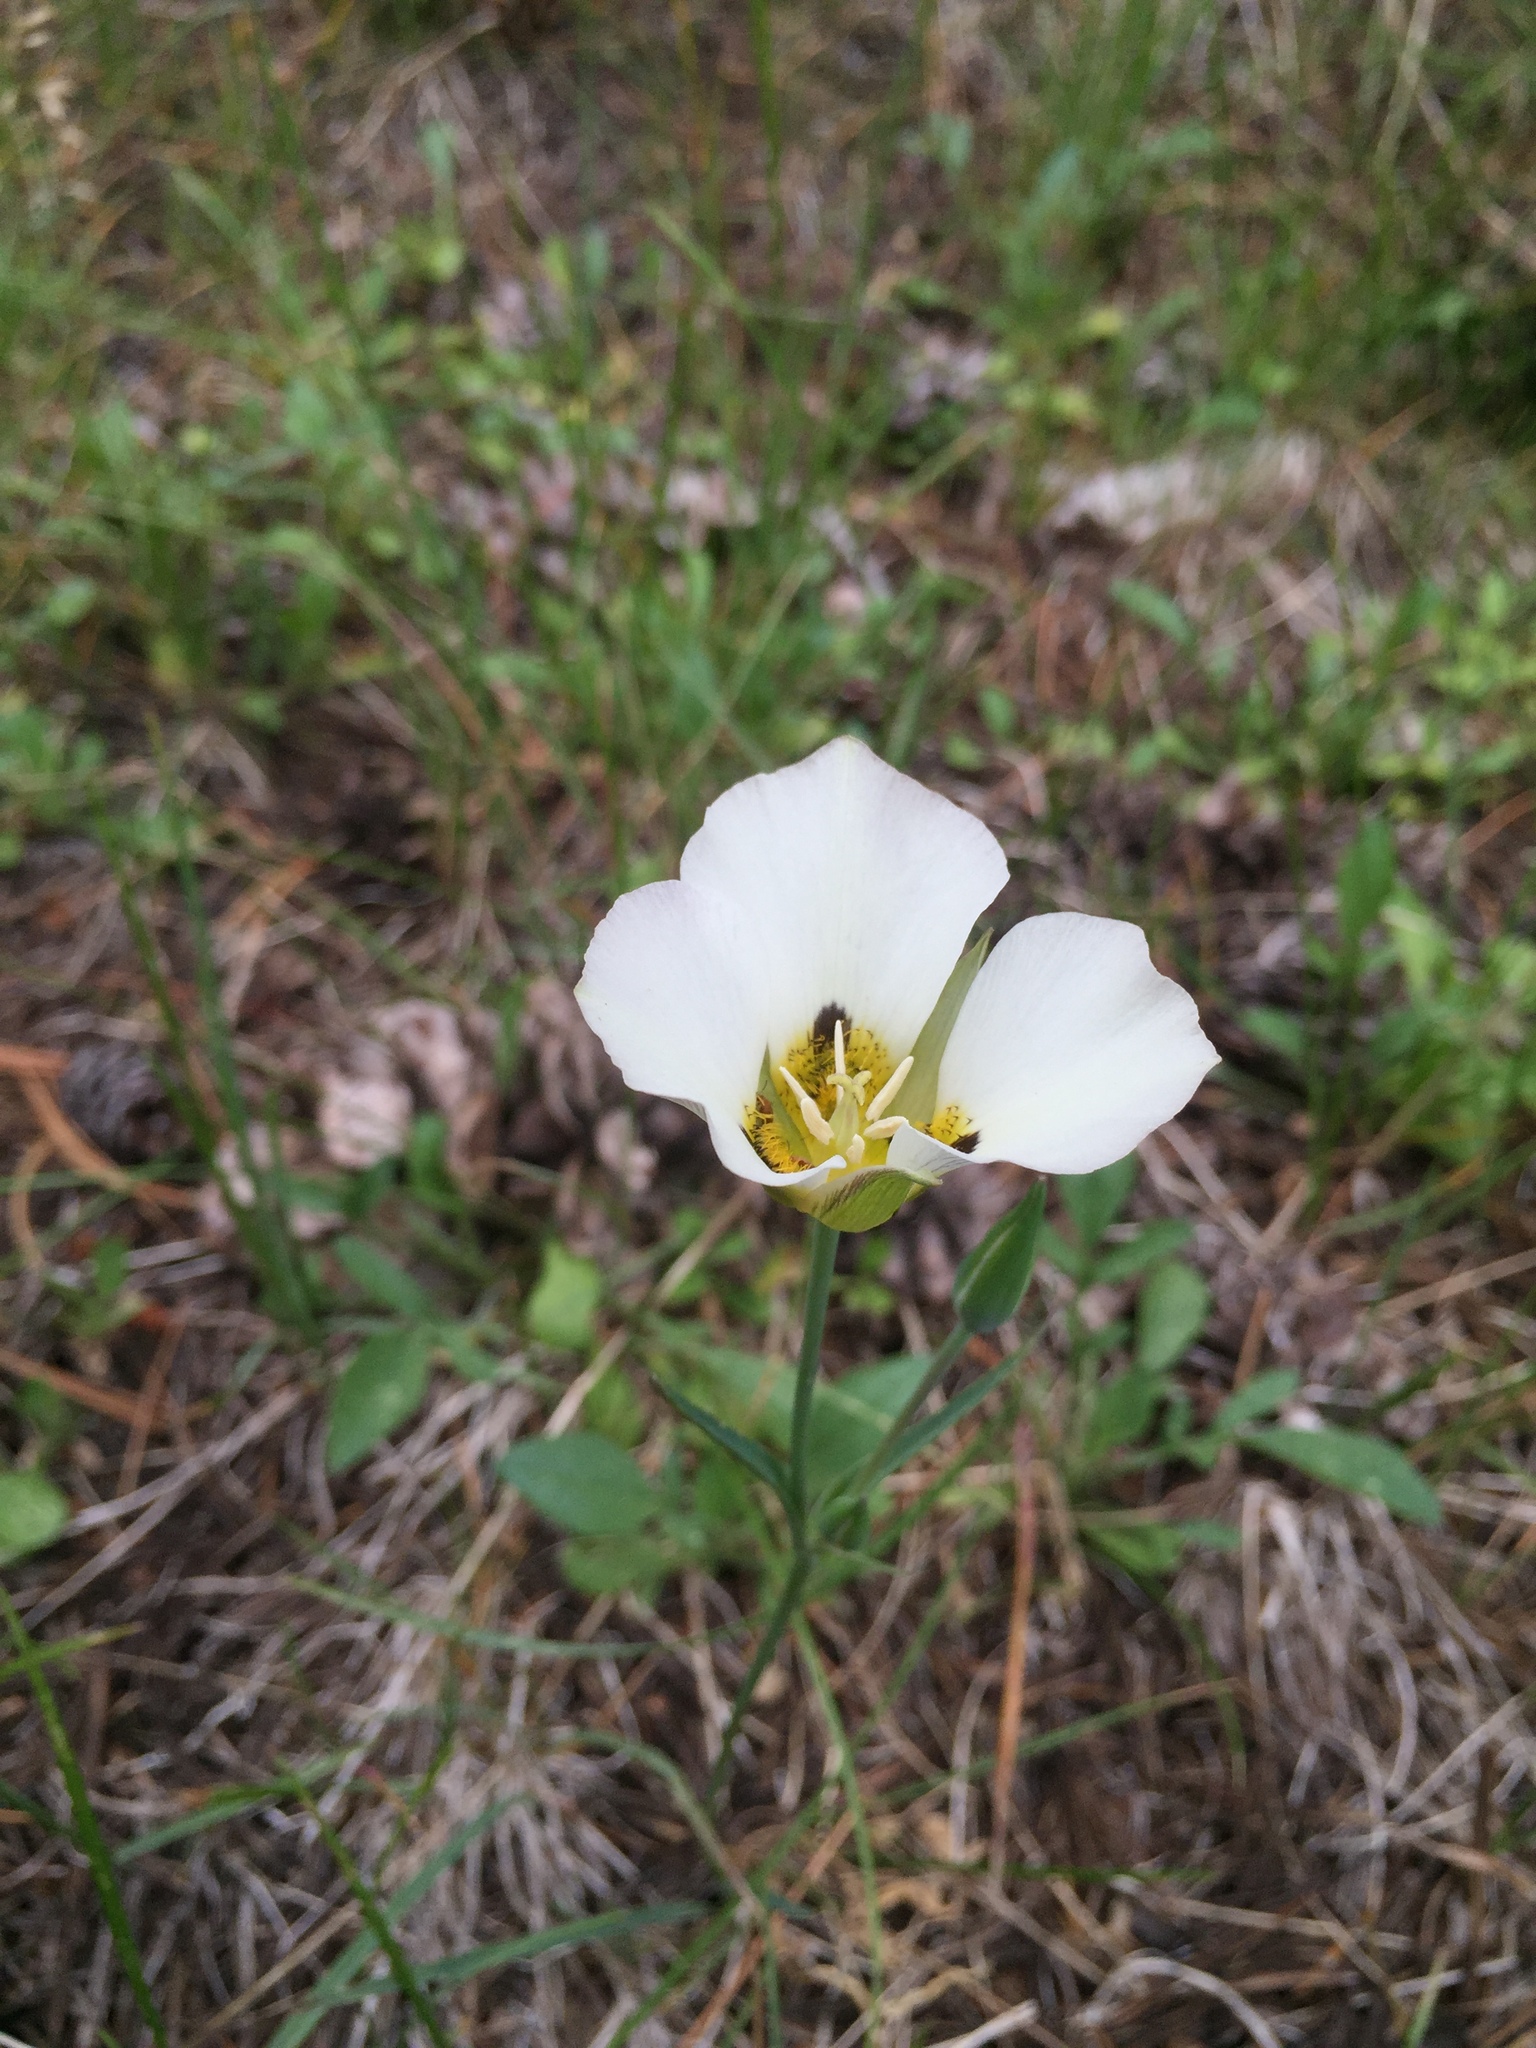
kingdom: Plantae
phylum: Tracheophyta
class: Liliopsida
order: Liliales
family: Liliaceae
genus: Calochortus
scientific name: Calochortus leichtlinii
